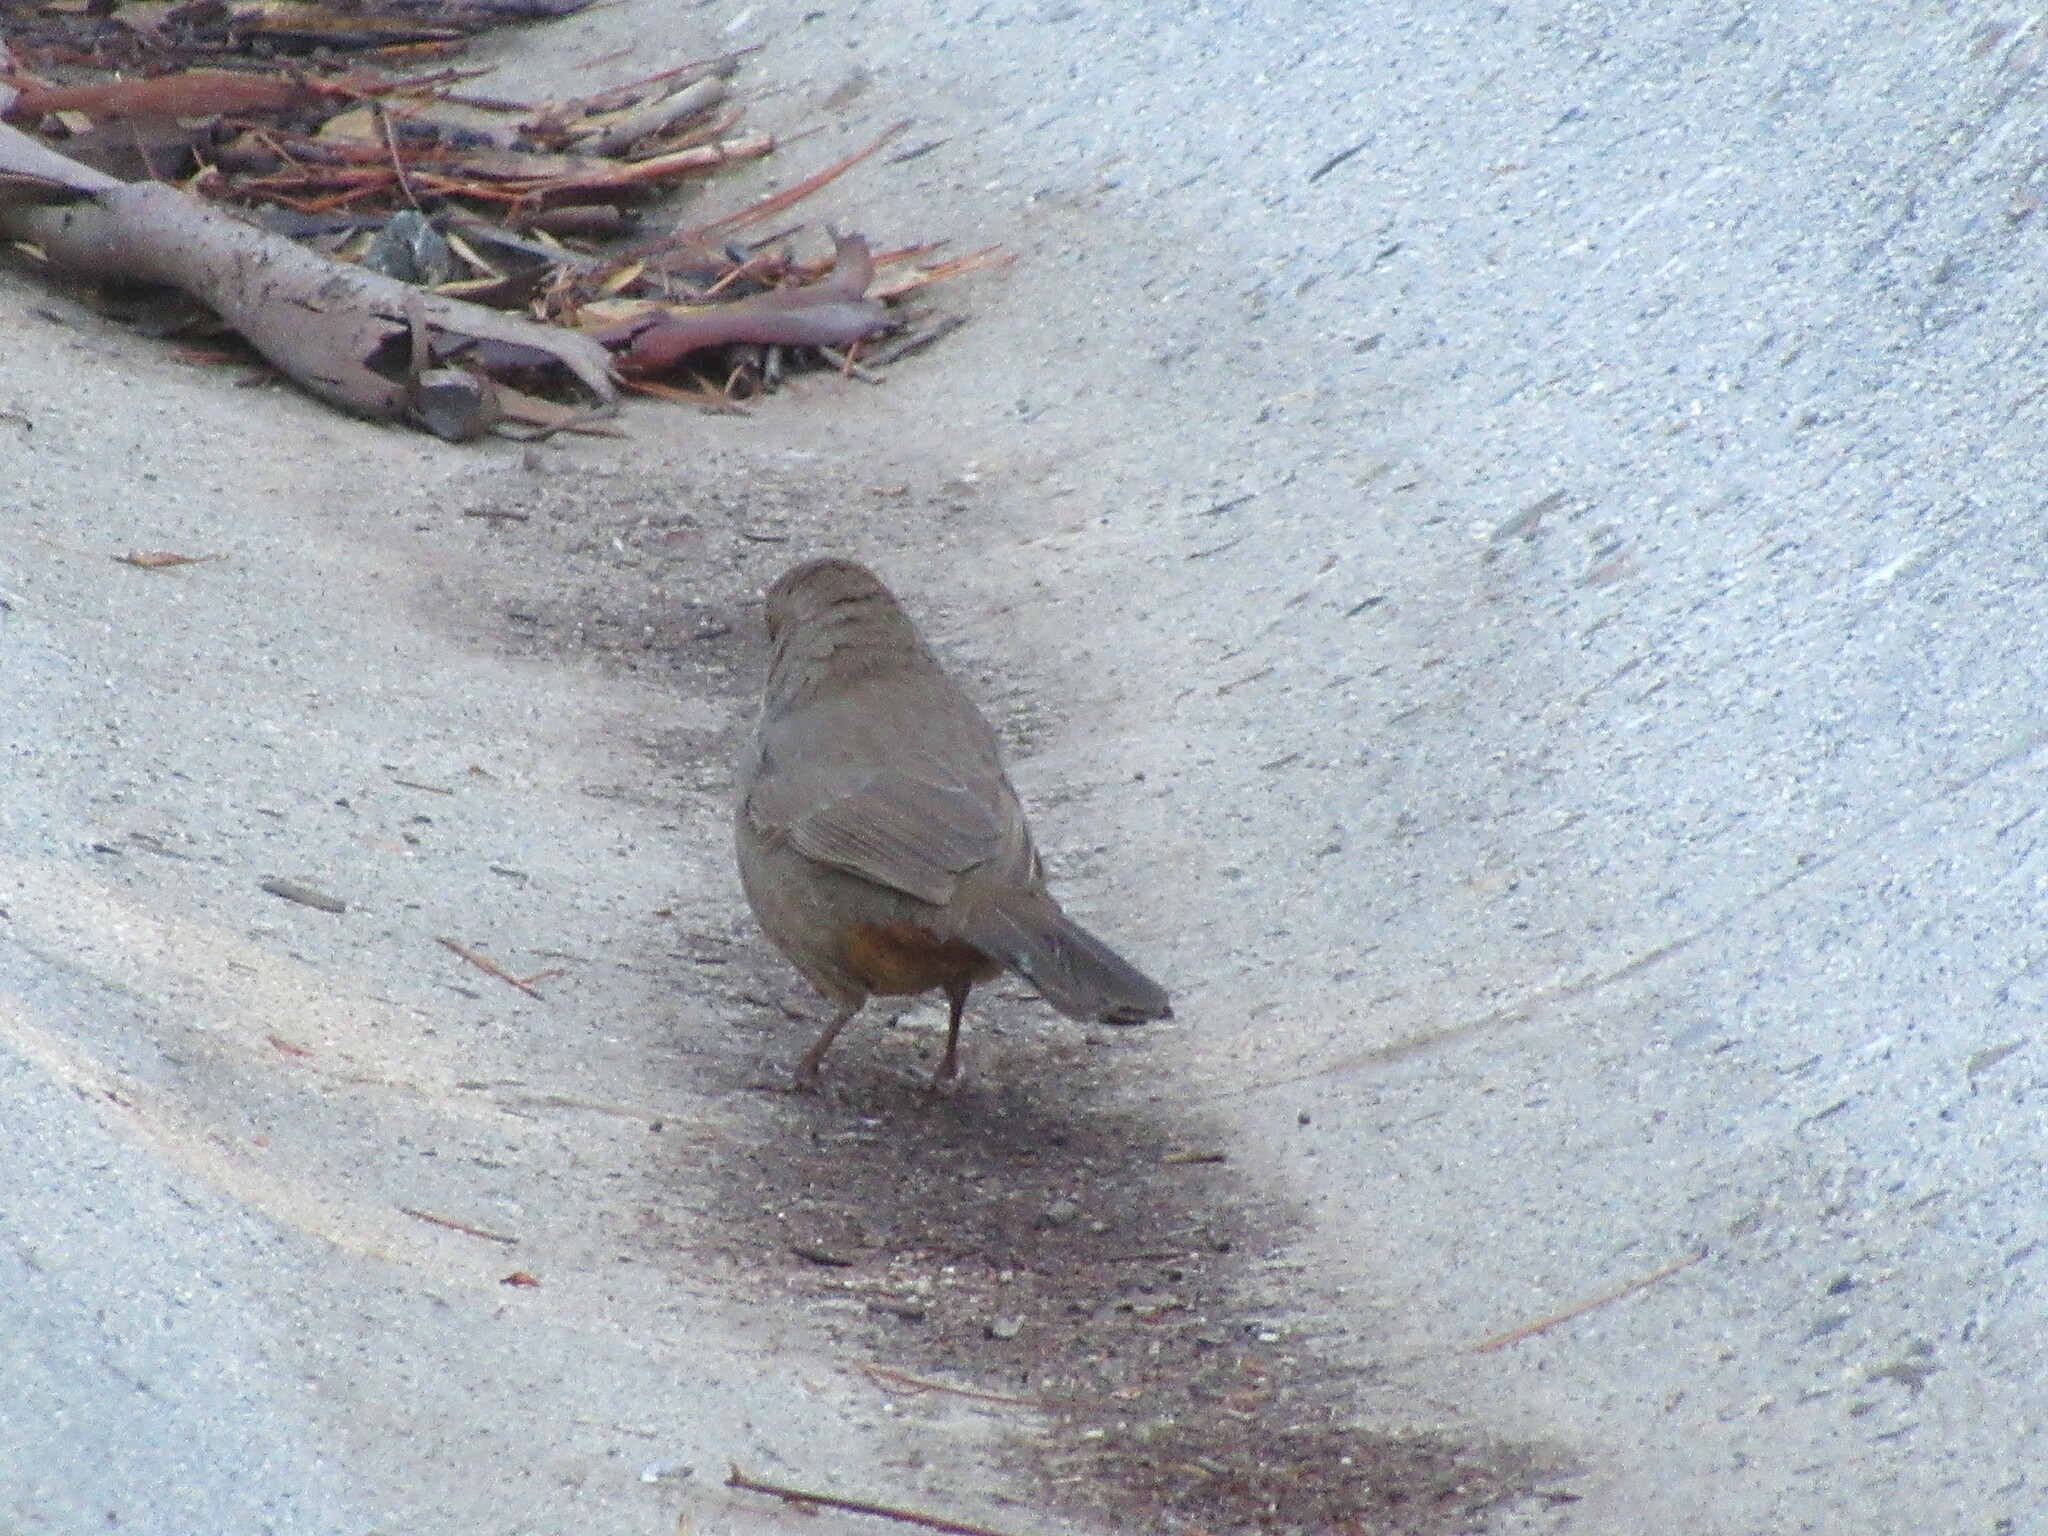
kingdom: Animalia
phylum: Chordata
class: Aves
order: Passeriformes
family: Passerellidae
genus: Melozone
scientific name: Melozone crissalis
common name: California towhee
